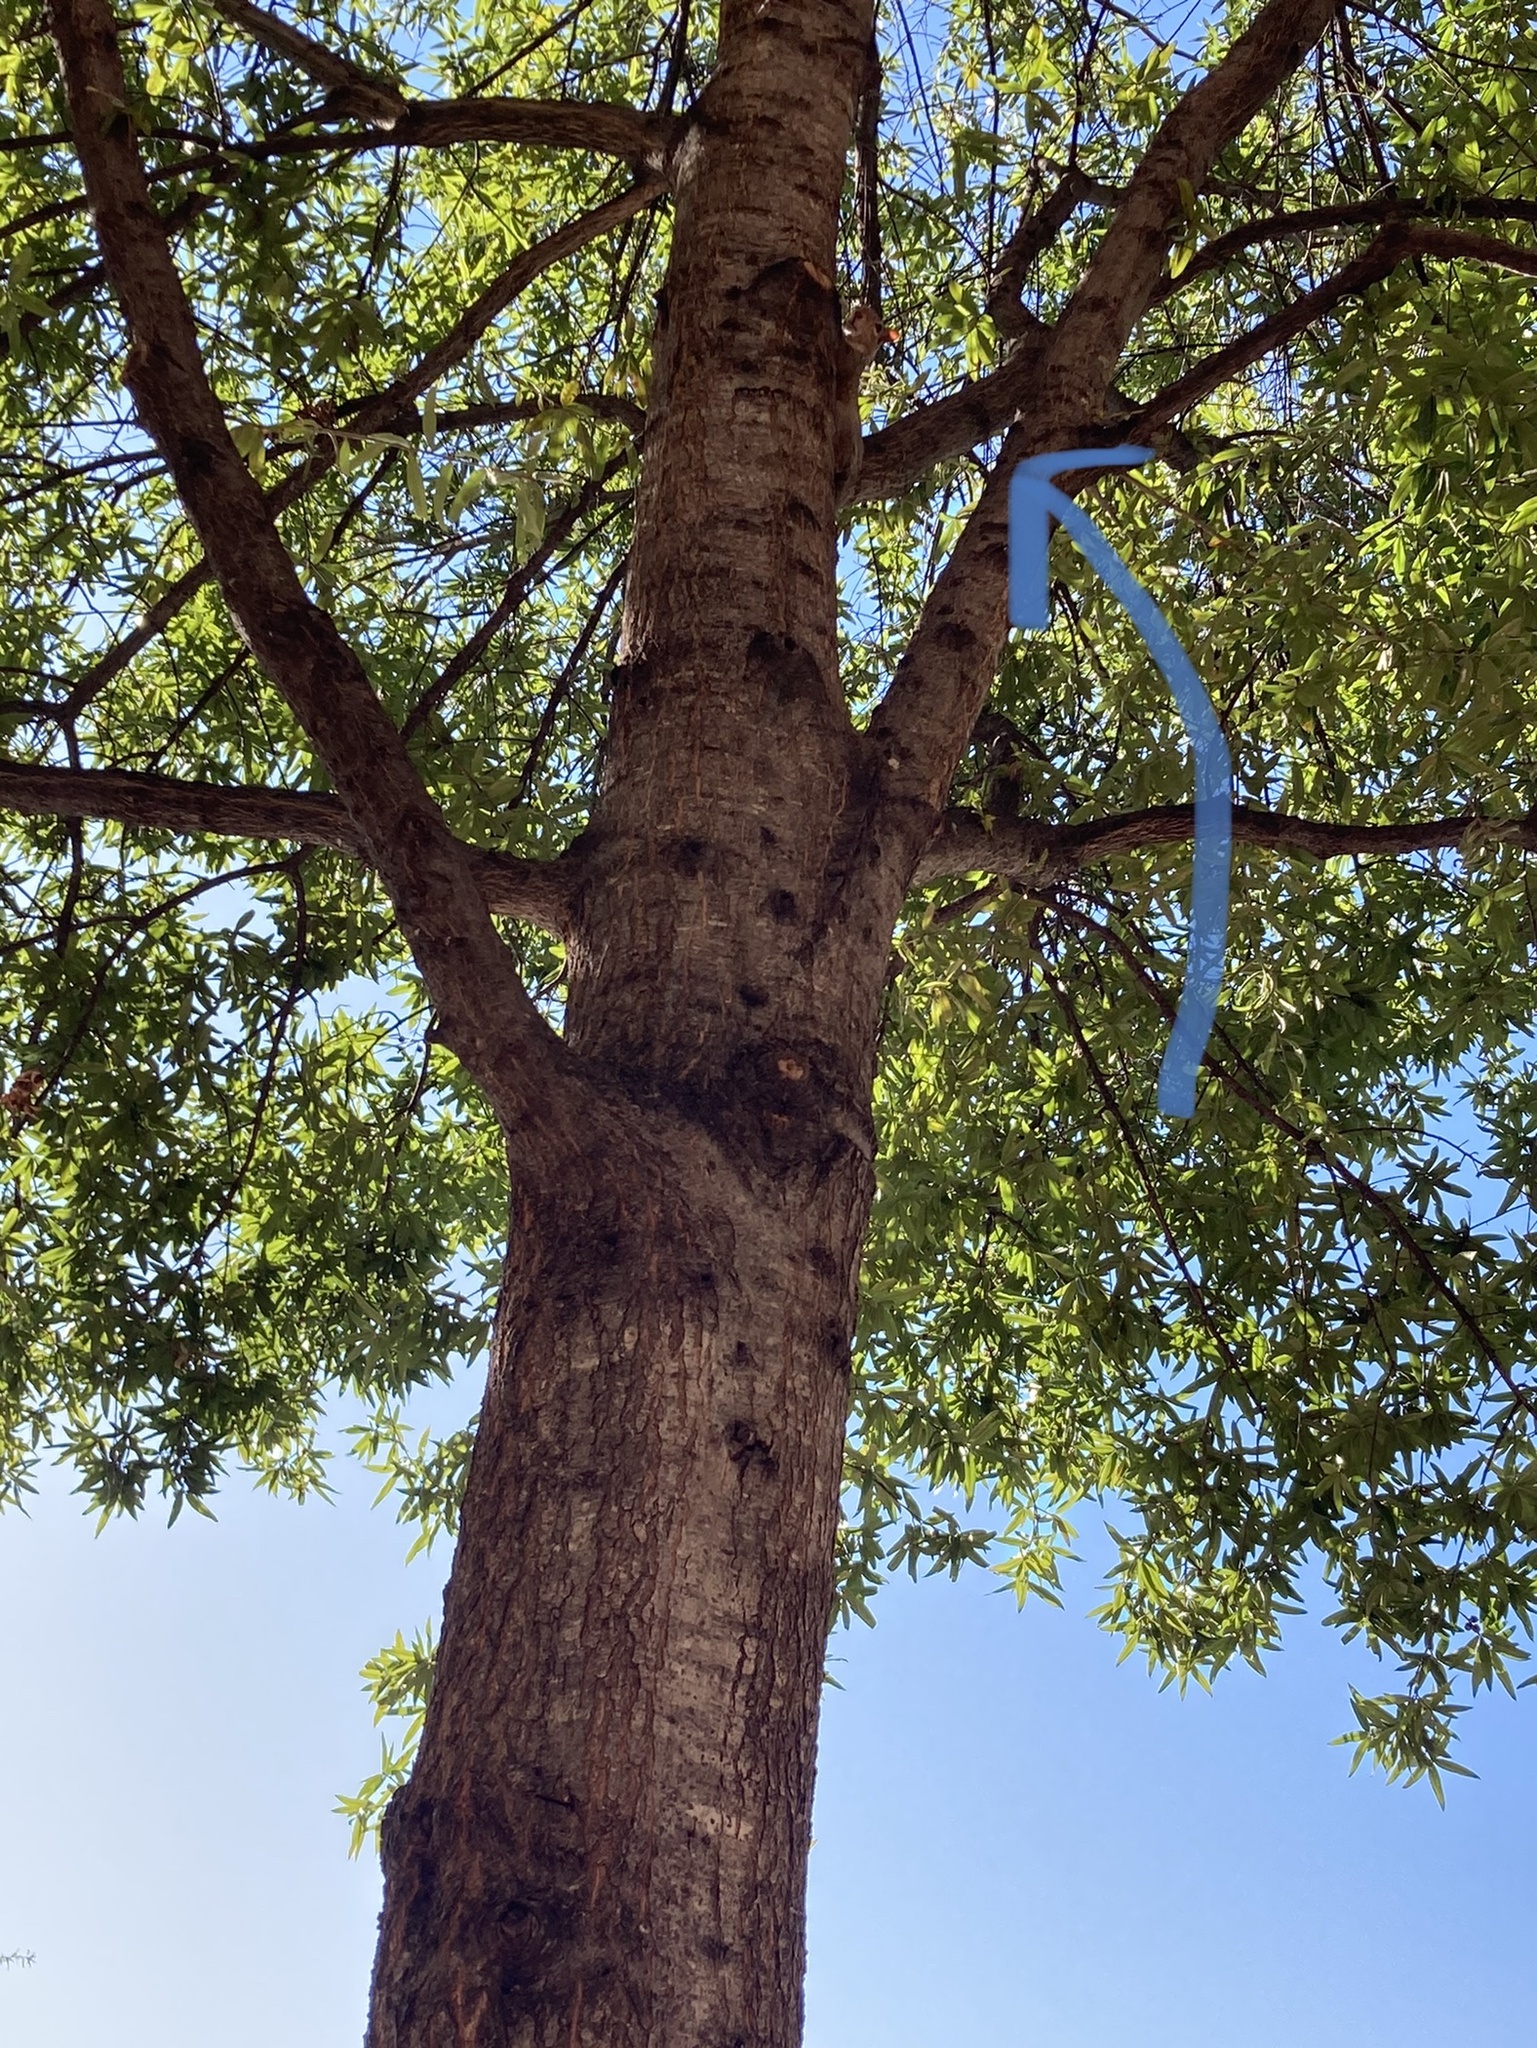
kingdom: Animalia
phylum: Chordata
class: Mammalia
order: Rodentia
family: Sciuridae
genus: Sciurus
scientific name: Sciurus carolinensis
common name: Eastern gray squirrel
